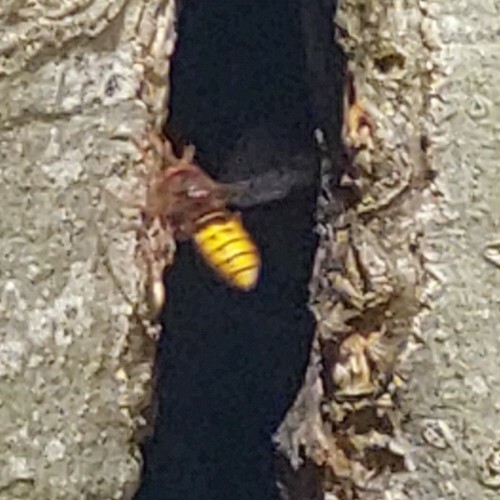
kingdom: Animalia
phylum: Arthropoda
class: Insecta
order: Hymenoptera
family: Vespidae
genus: Vespa
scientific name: Vespa crabro
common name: Hornet
